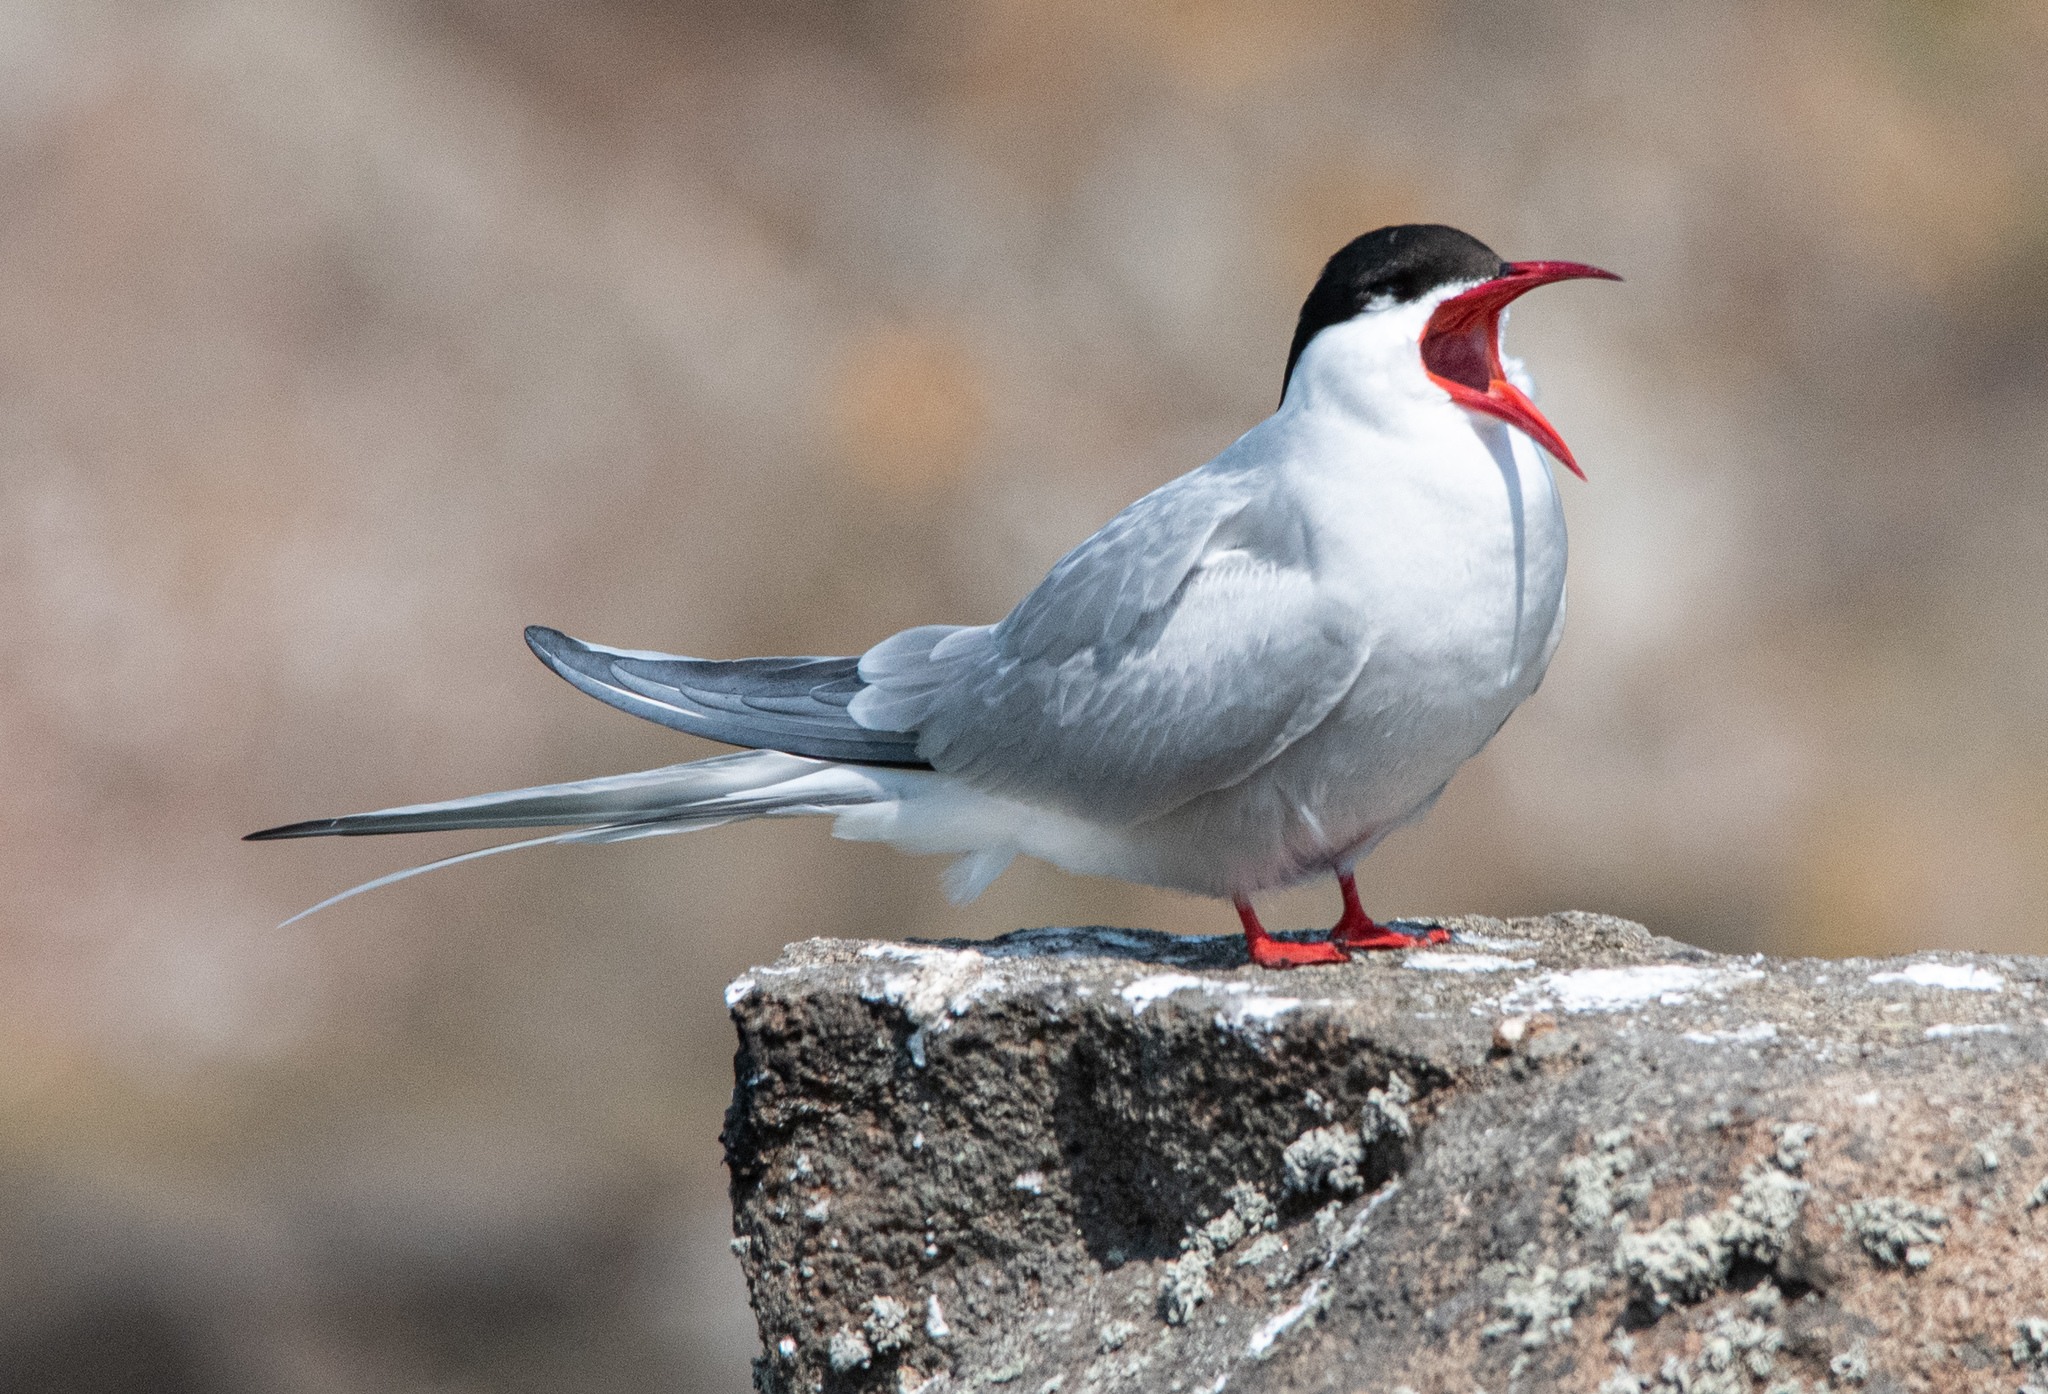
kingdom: Animalia
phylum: Chordata
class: Aves
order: Charadriiformes
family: Laridae
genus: Sterna
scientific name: Sterna paradisaea
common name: Arctic tern
